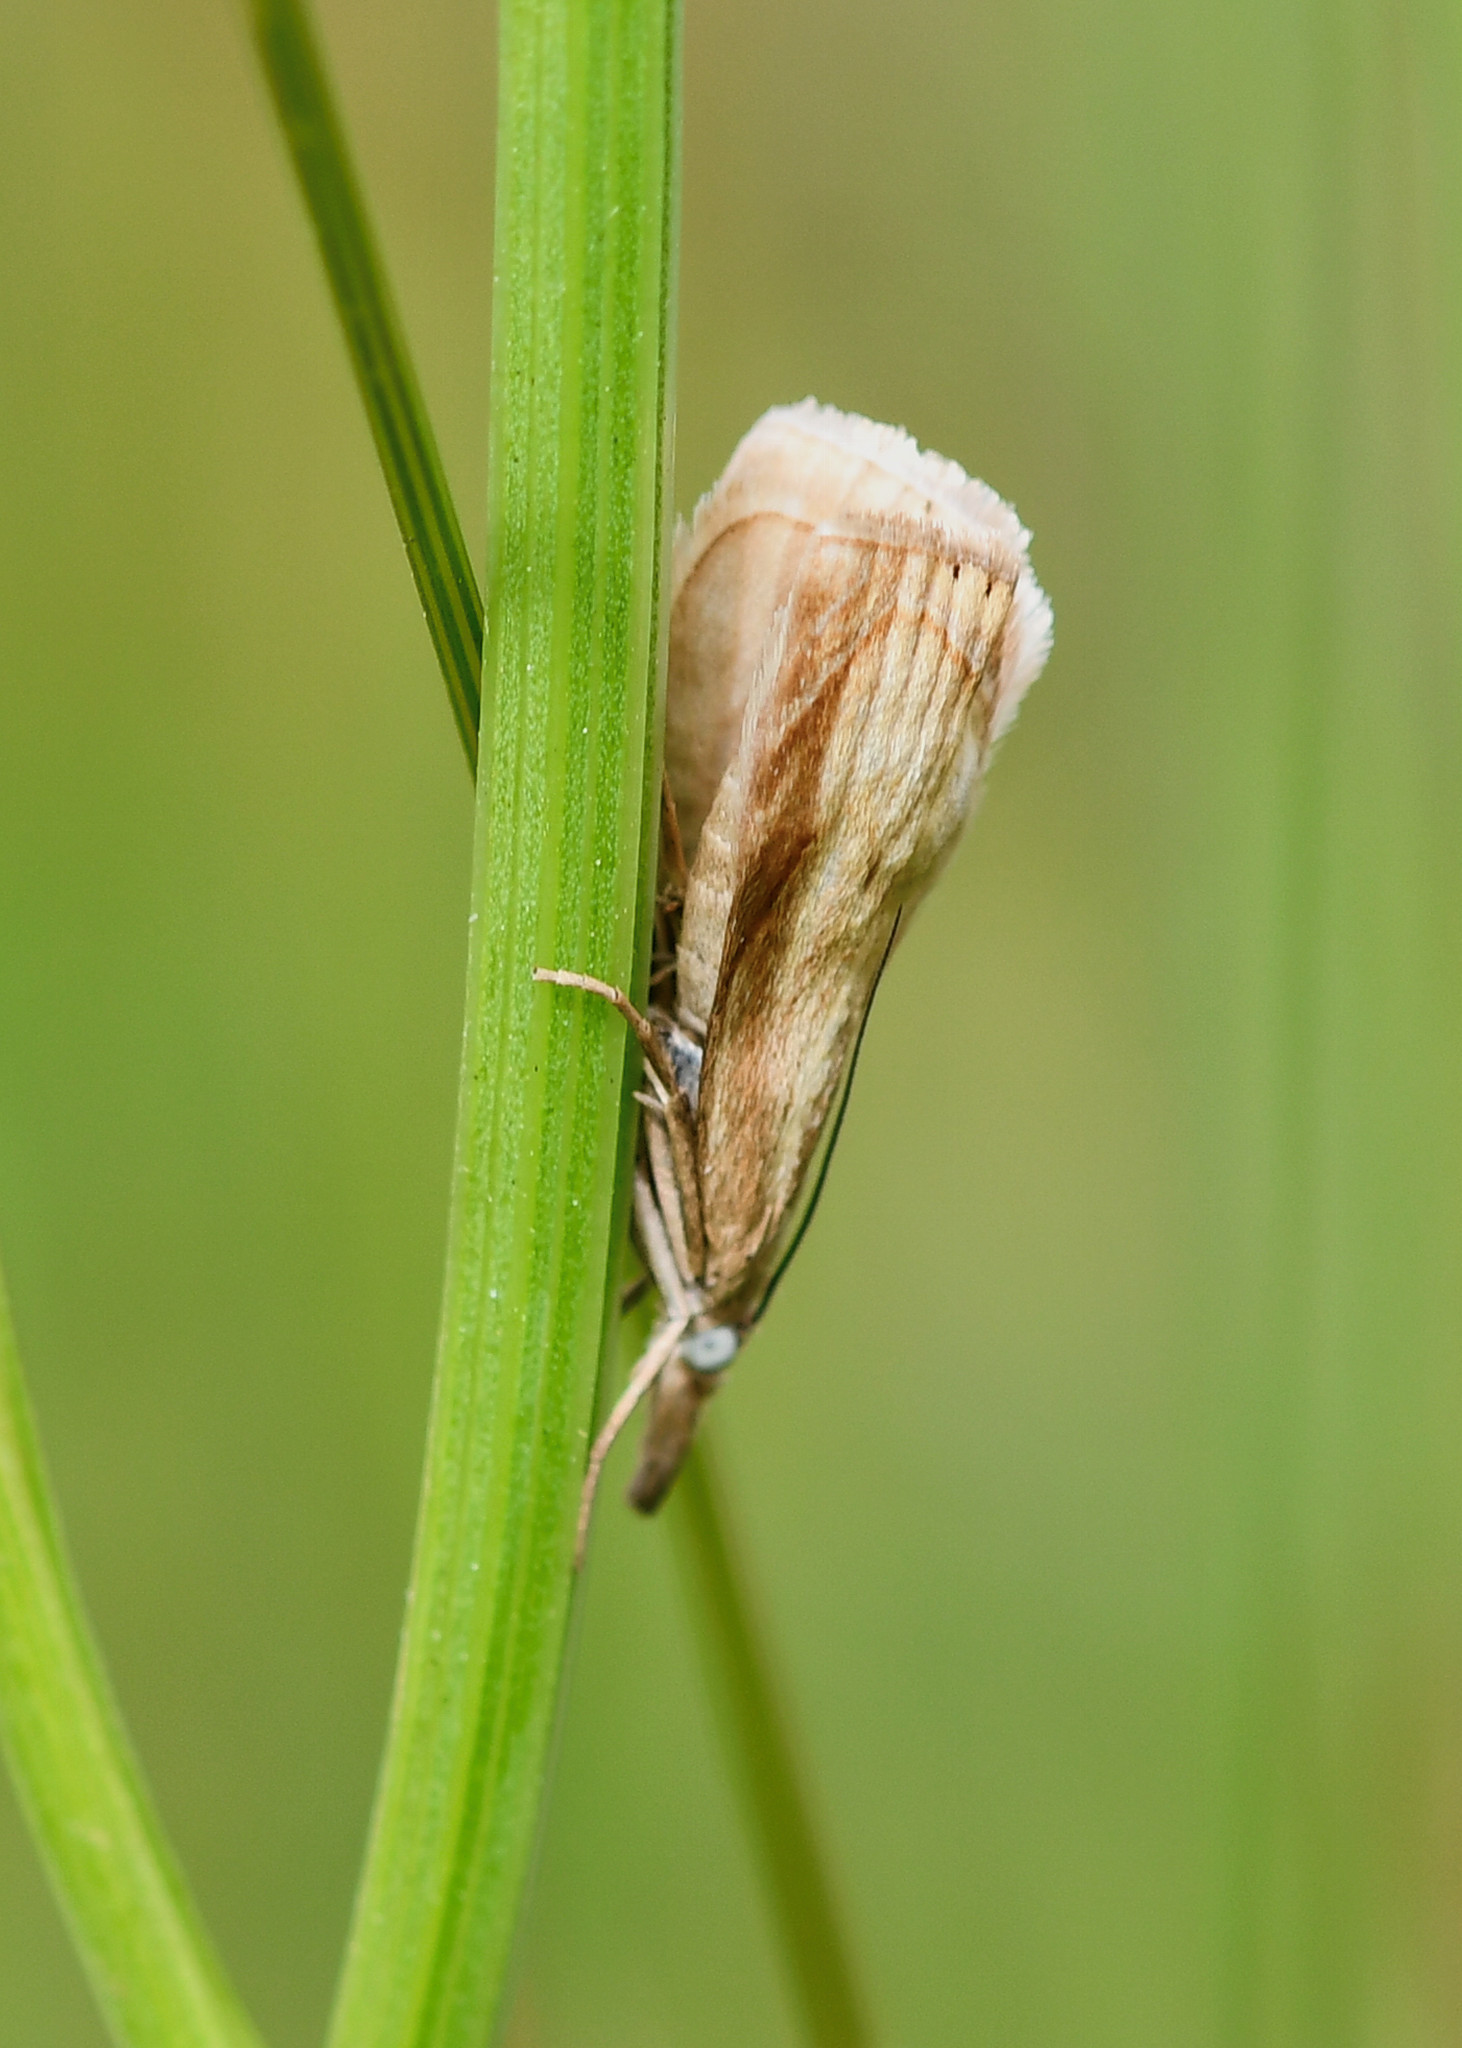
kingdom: Animalia
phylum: Arthropoda
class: Insecta
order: Lepidoptera
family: Crambidae
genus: Chrysoteuchia
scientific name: Chrysoteuchia culmella
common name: Garden grass-veneer
